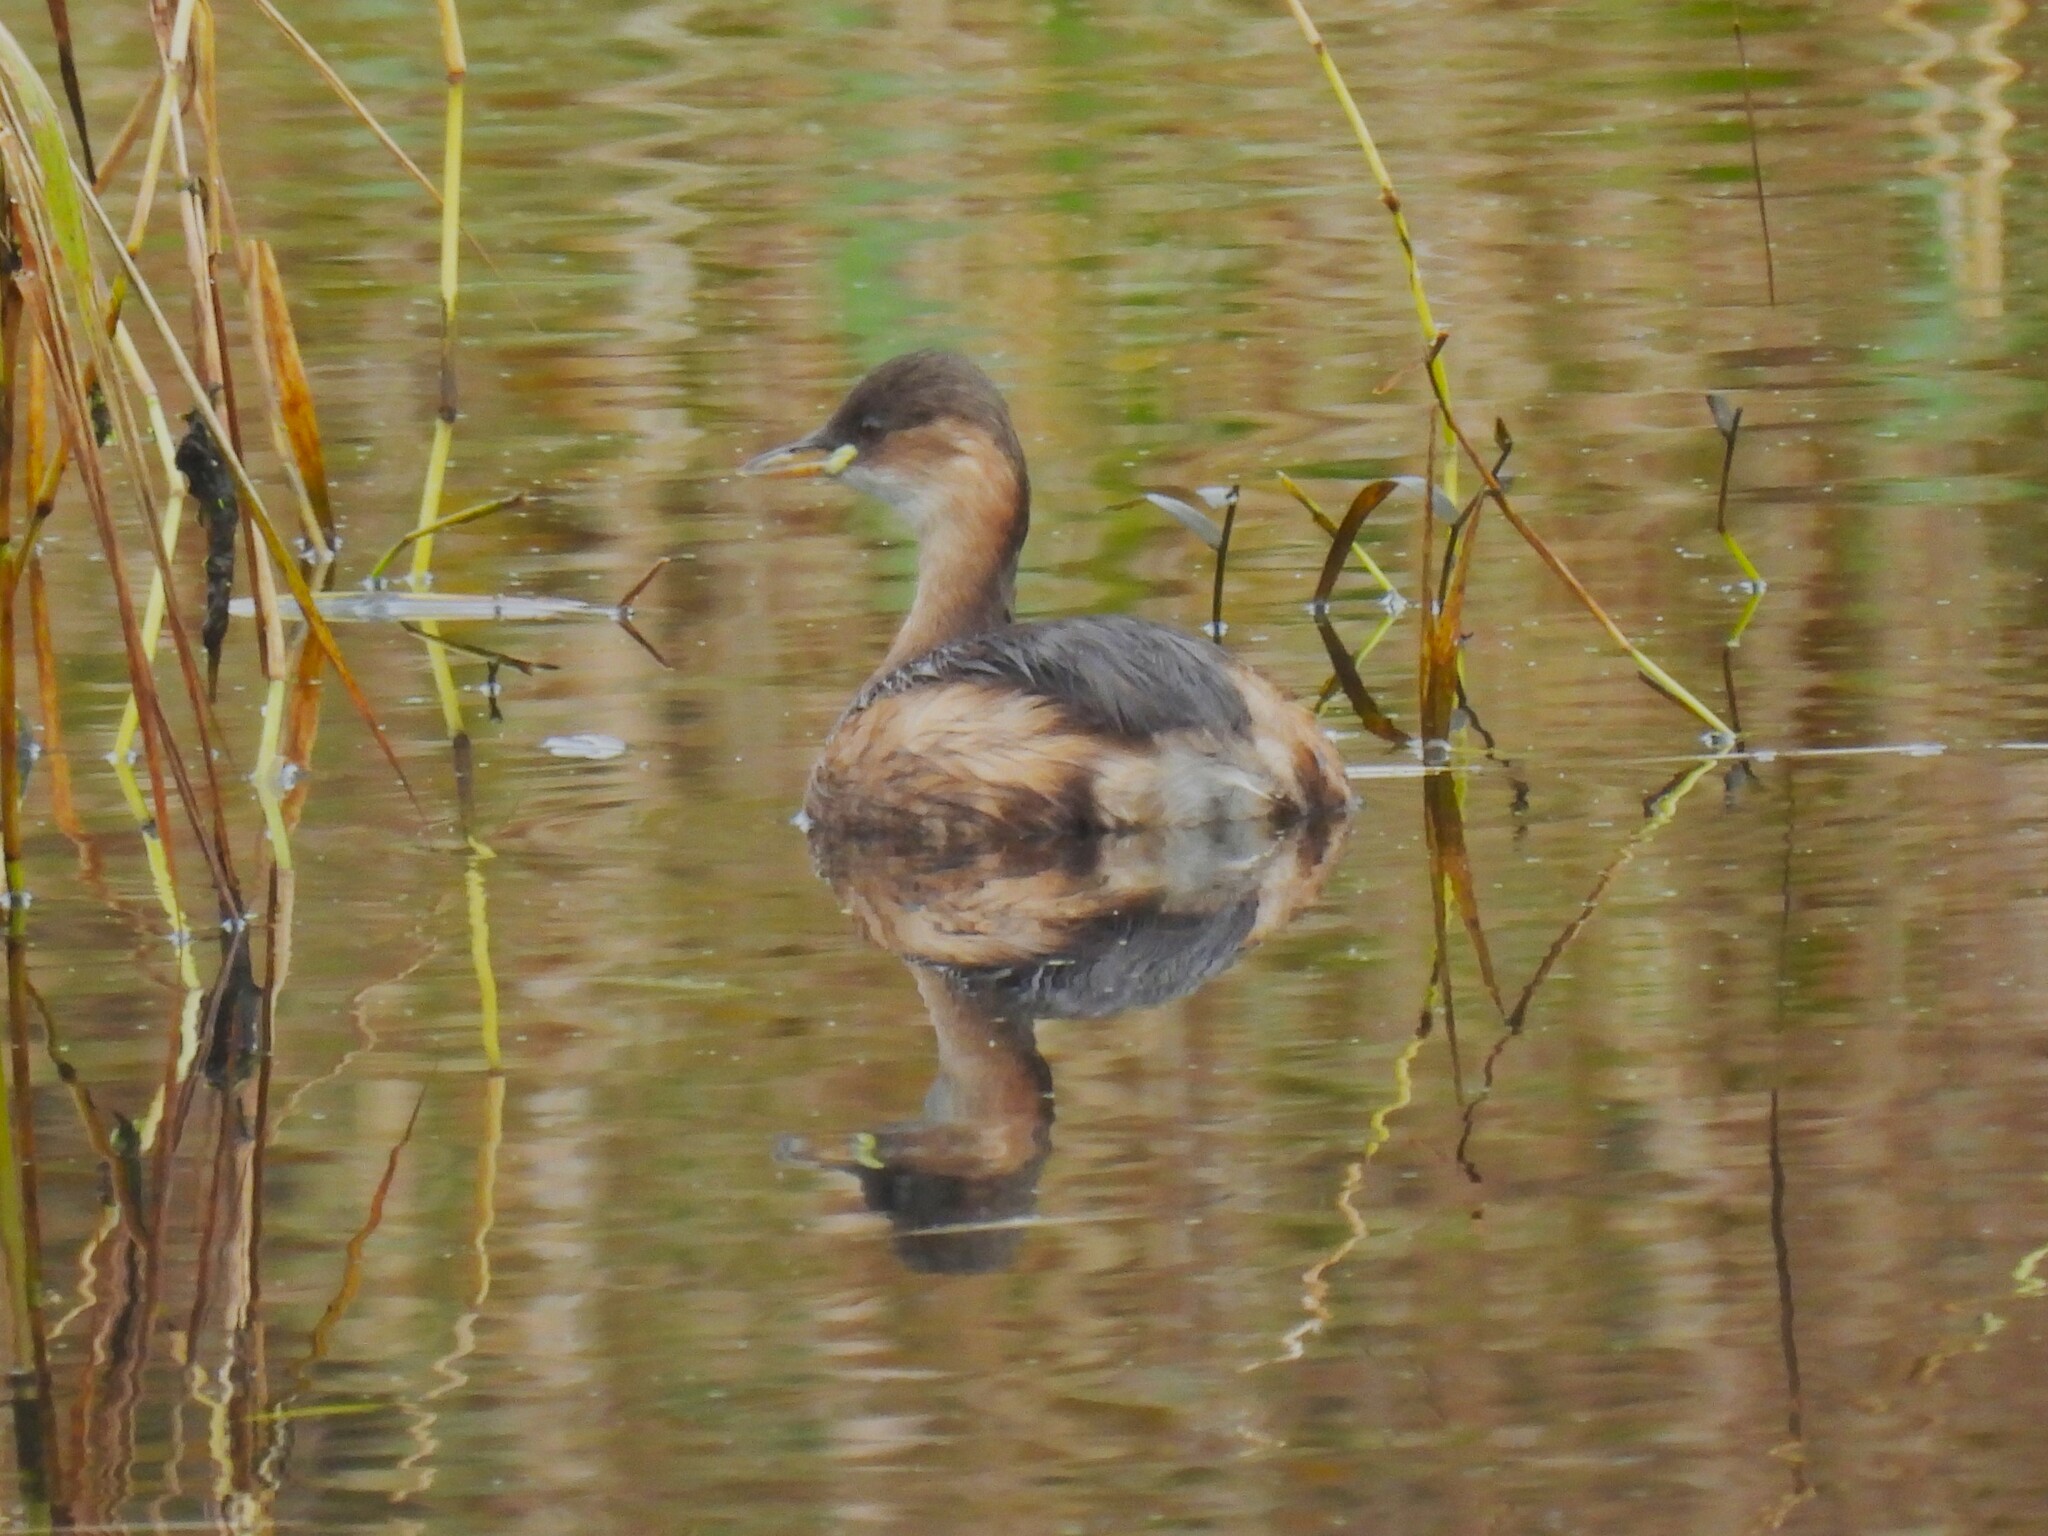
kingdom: Animalia
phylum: Chordata
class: Aves
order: Podicipediformes
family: Podicipedidae
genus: Tachybaptus
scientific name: Tachybaptus ruficollis
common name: Little grebe
